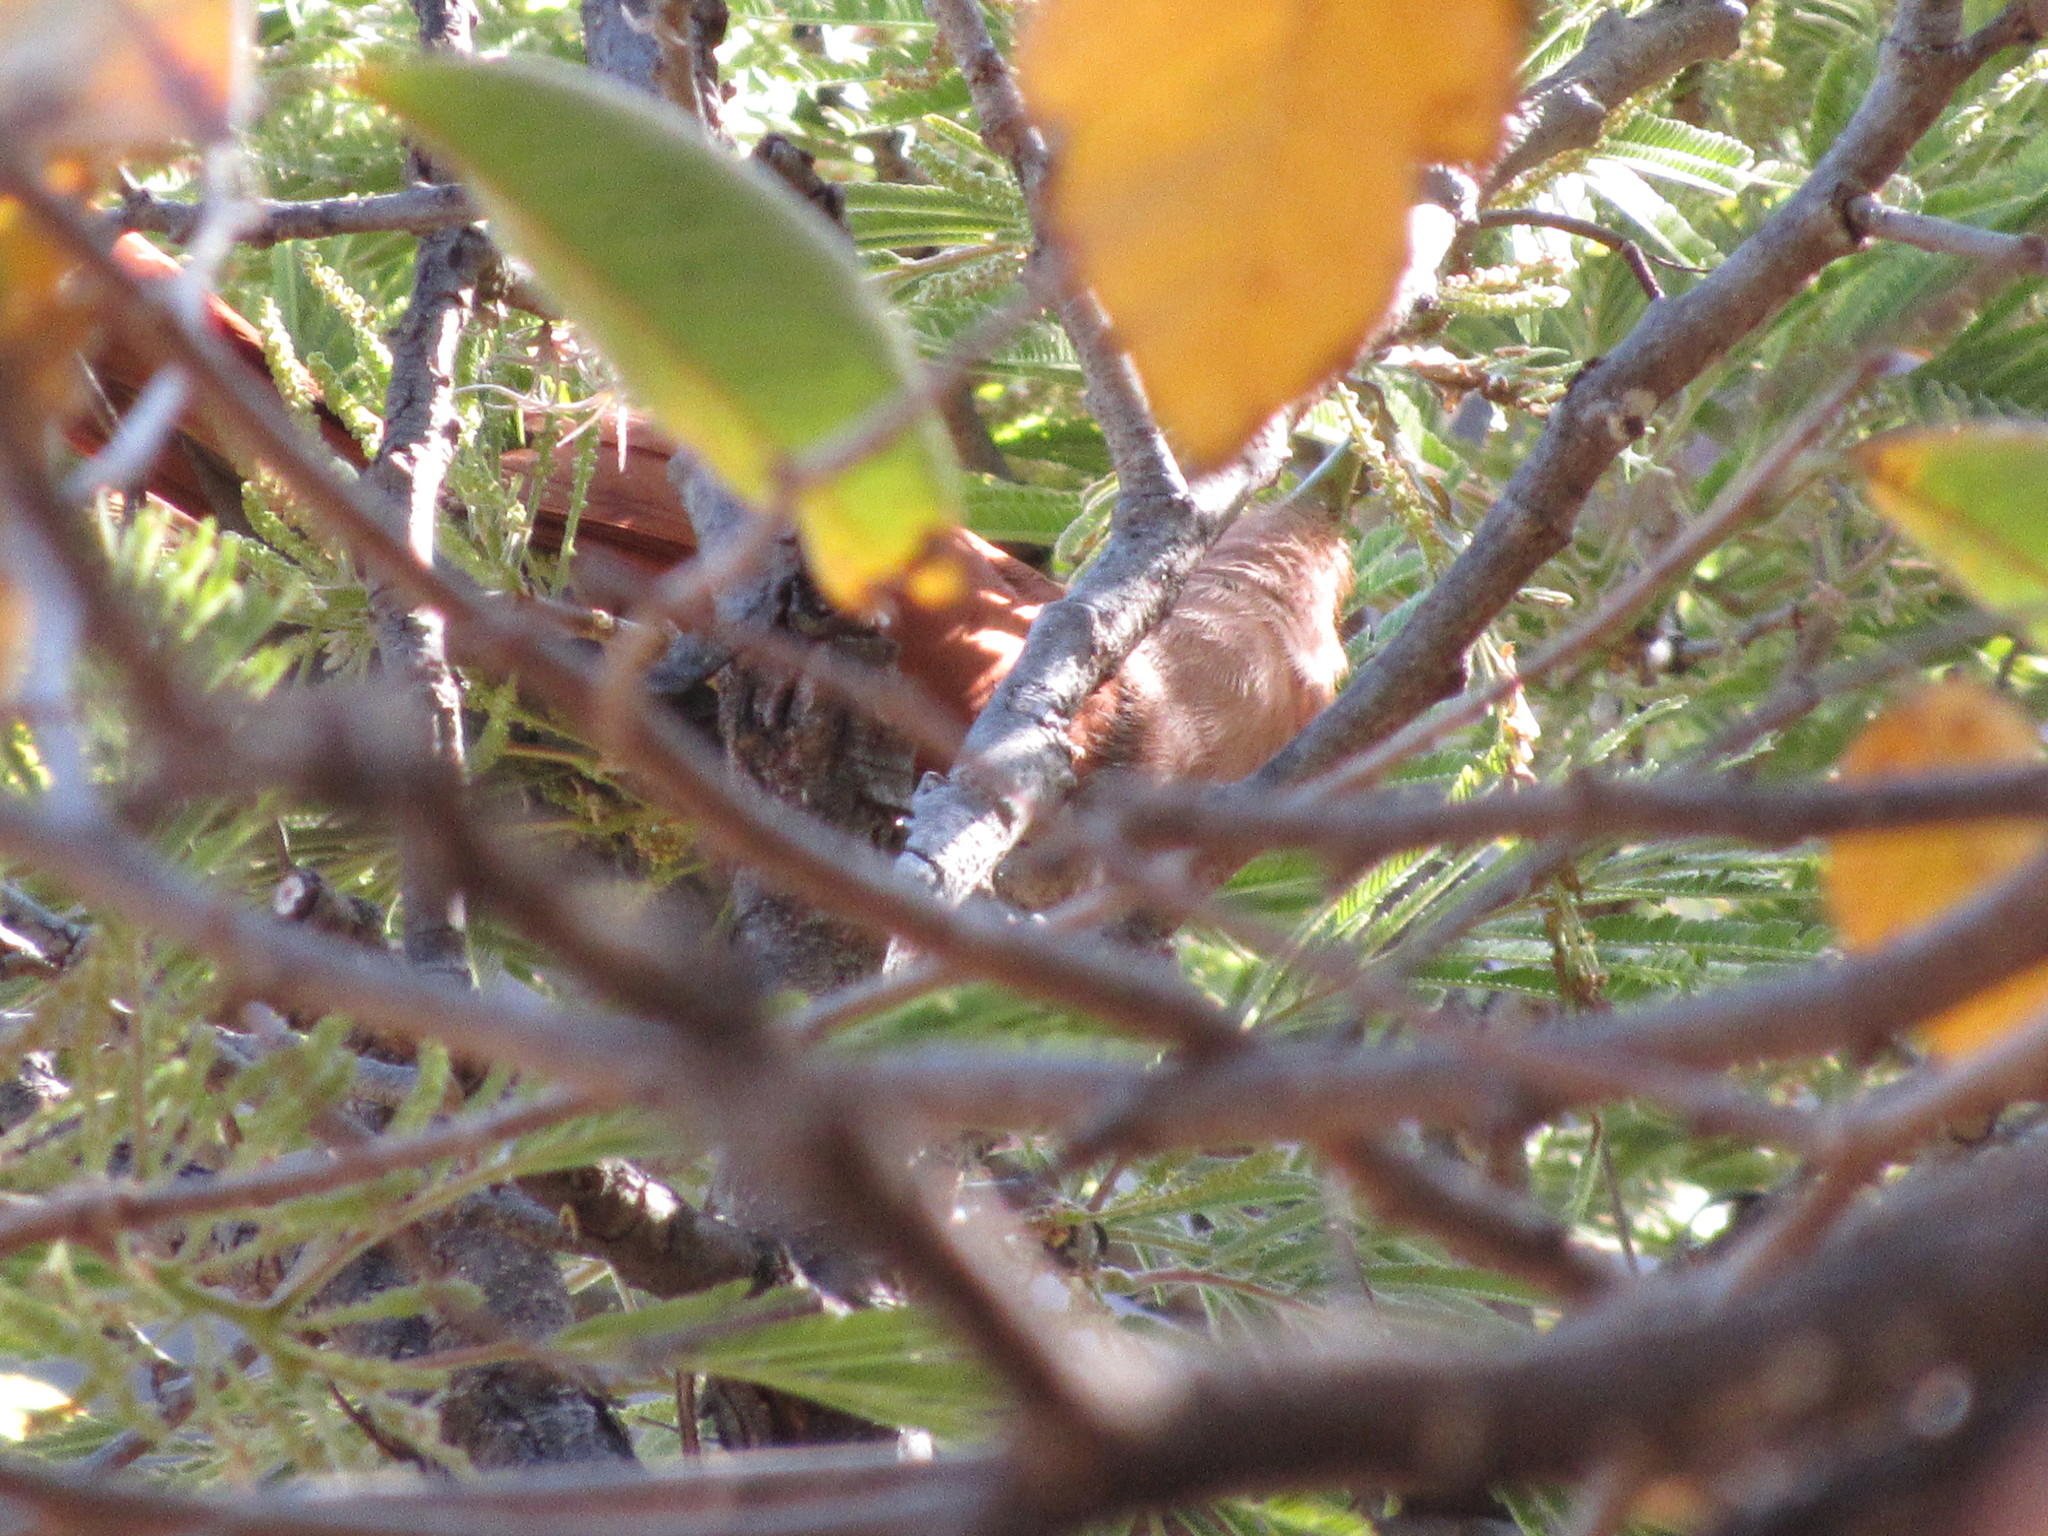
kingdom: Animalia
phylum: Chordata
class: Aves
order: Cuculiformes
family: Cuculidae
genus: Piaya
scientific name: Piaya cayana
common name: Squirrel cuckoo
